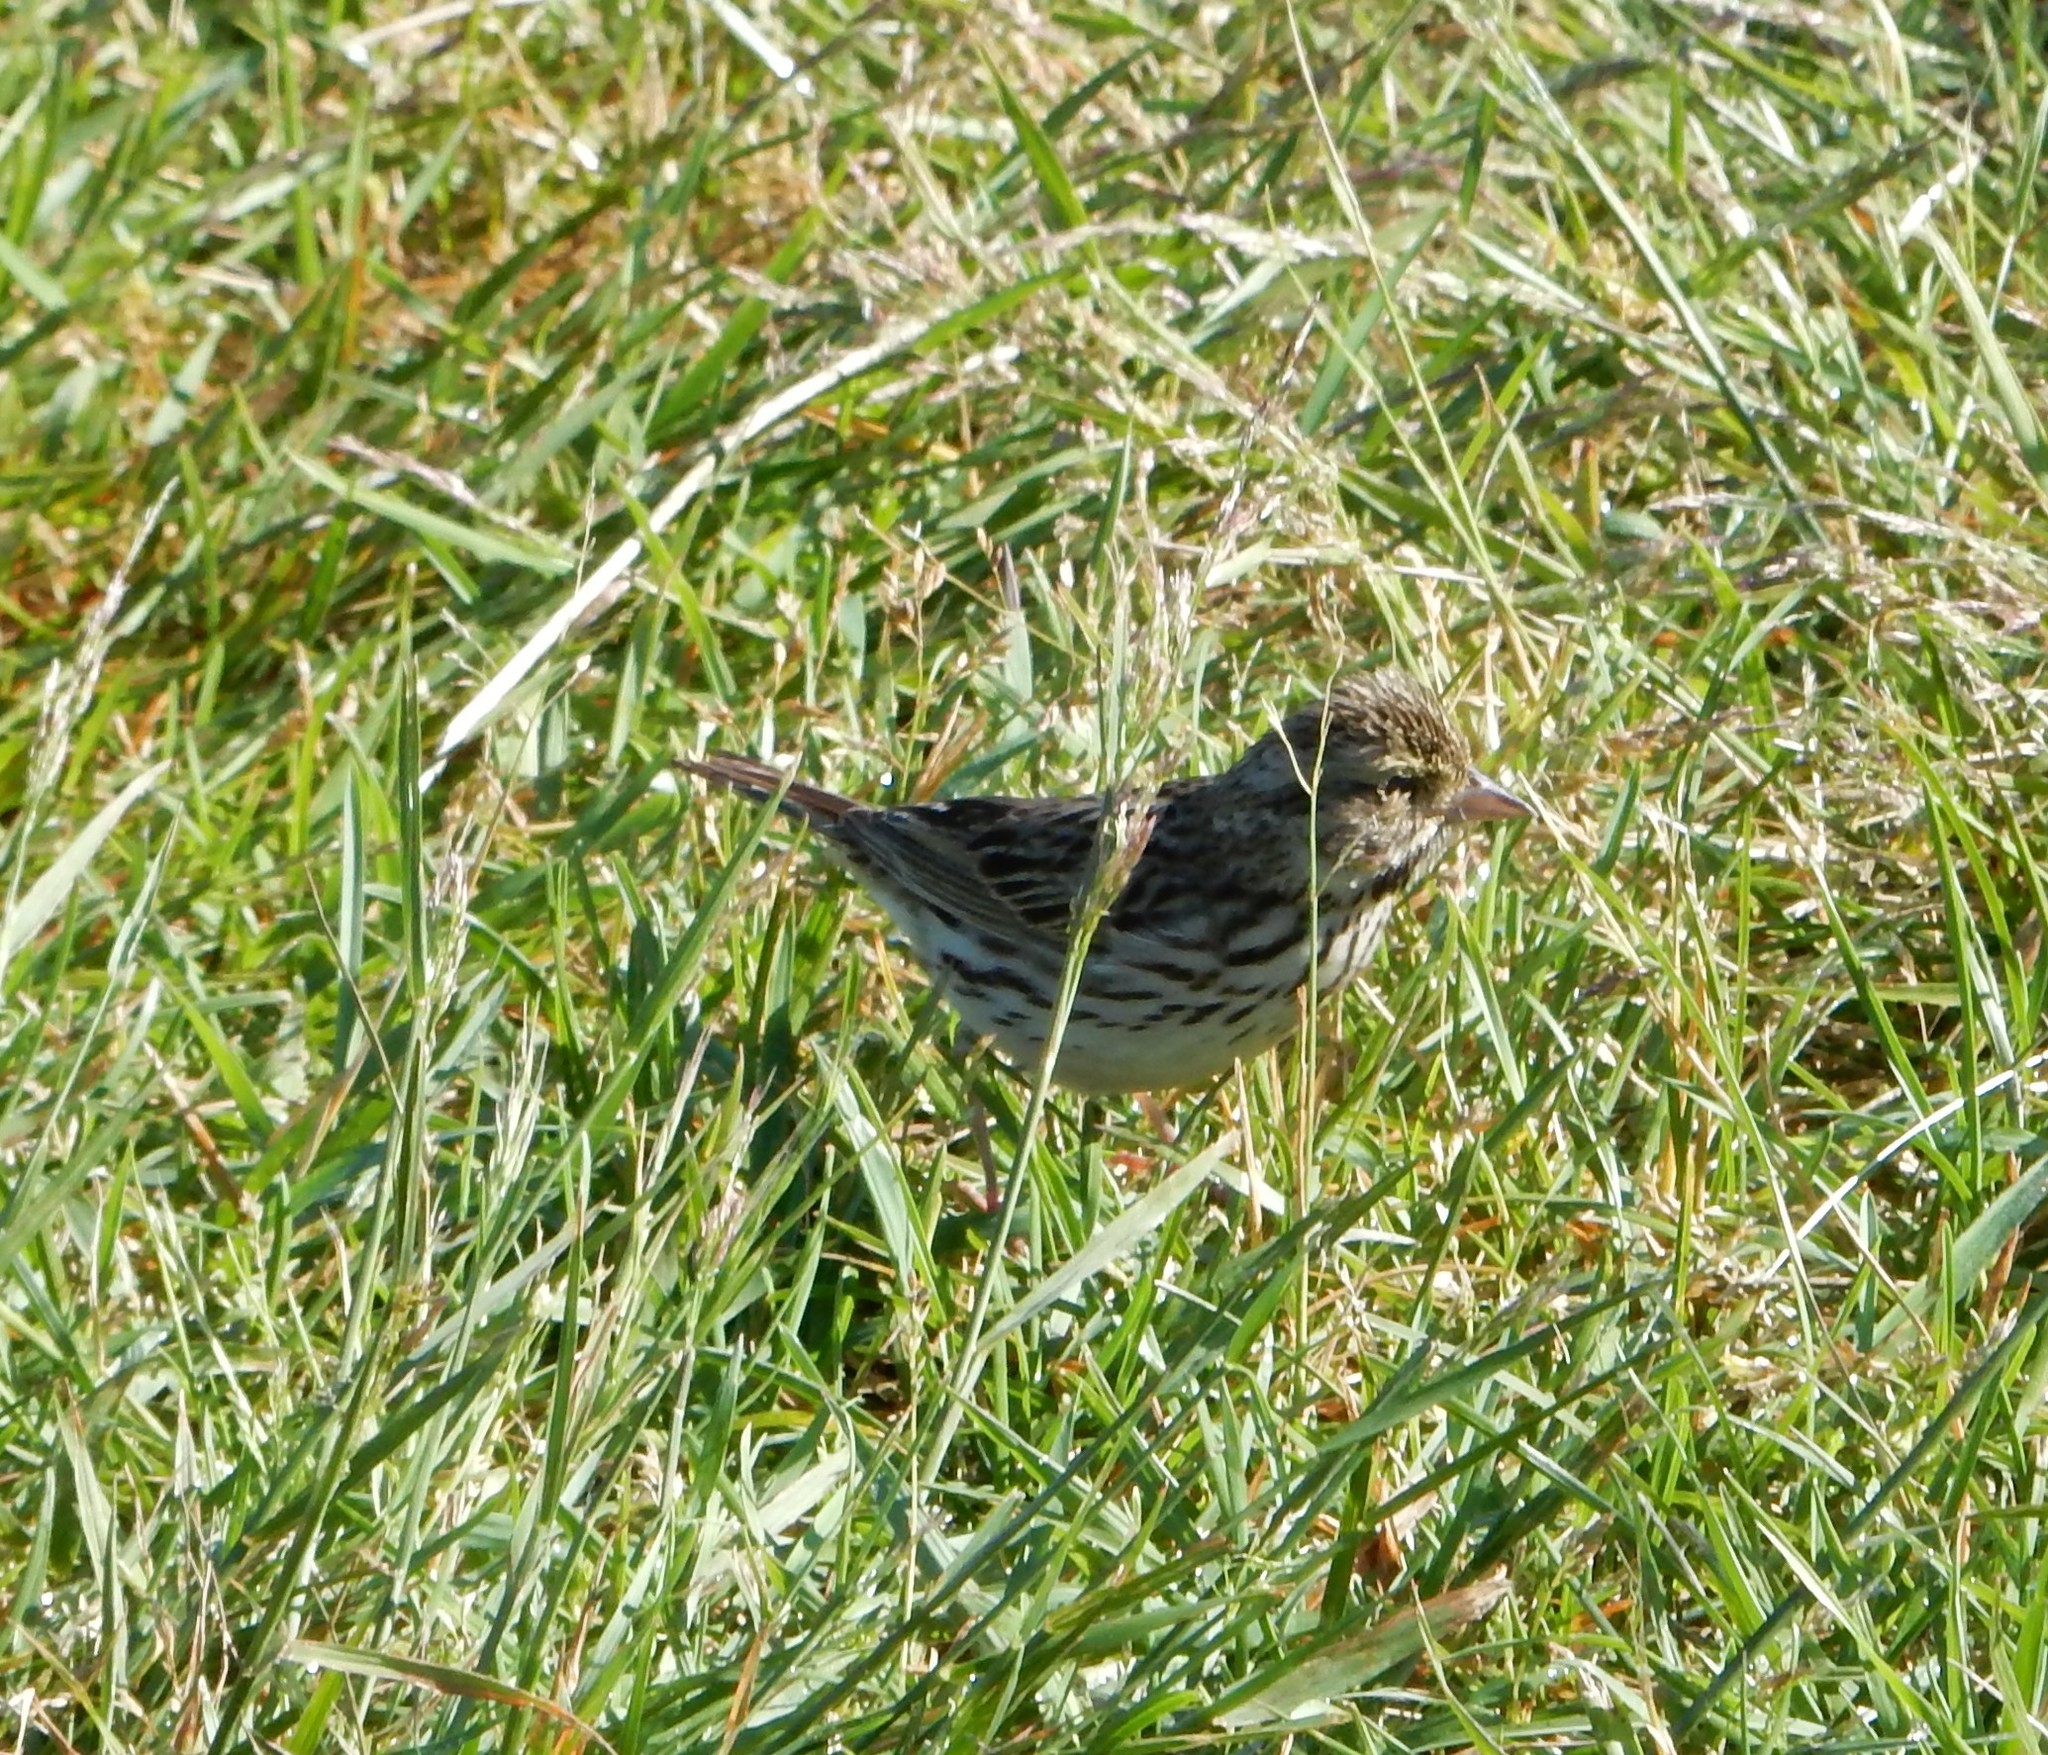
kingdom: Animalia
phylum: Chordata
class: Aves
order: Passeriformes
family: Passerellidae
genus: Passerculus
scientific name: Passerculus sandwichensis
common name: Savannah sparrow
